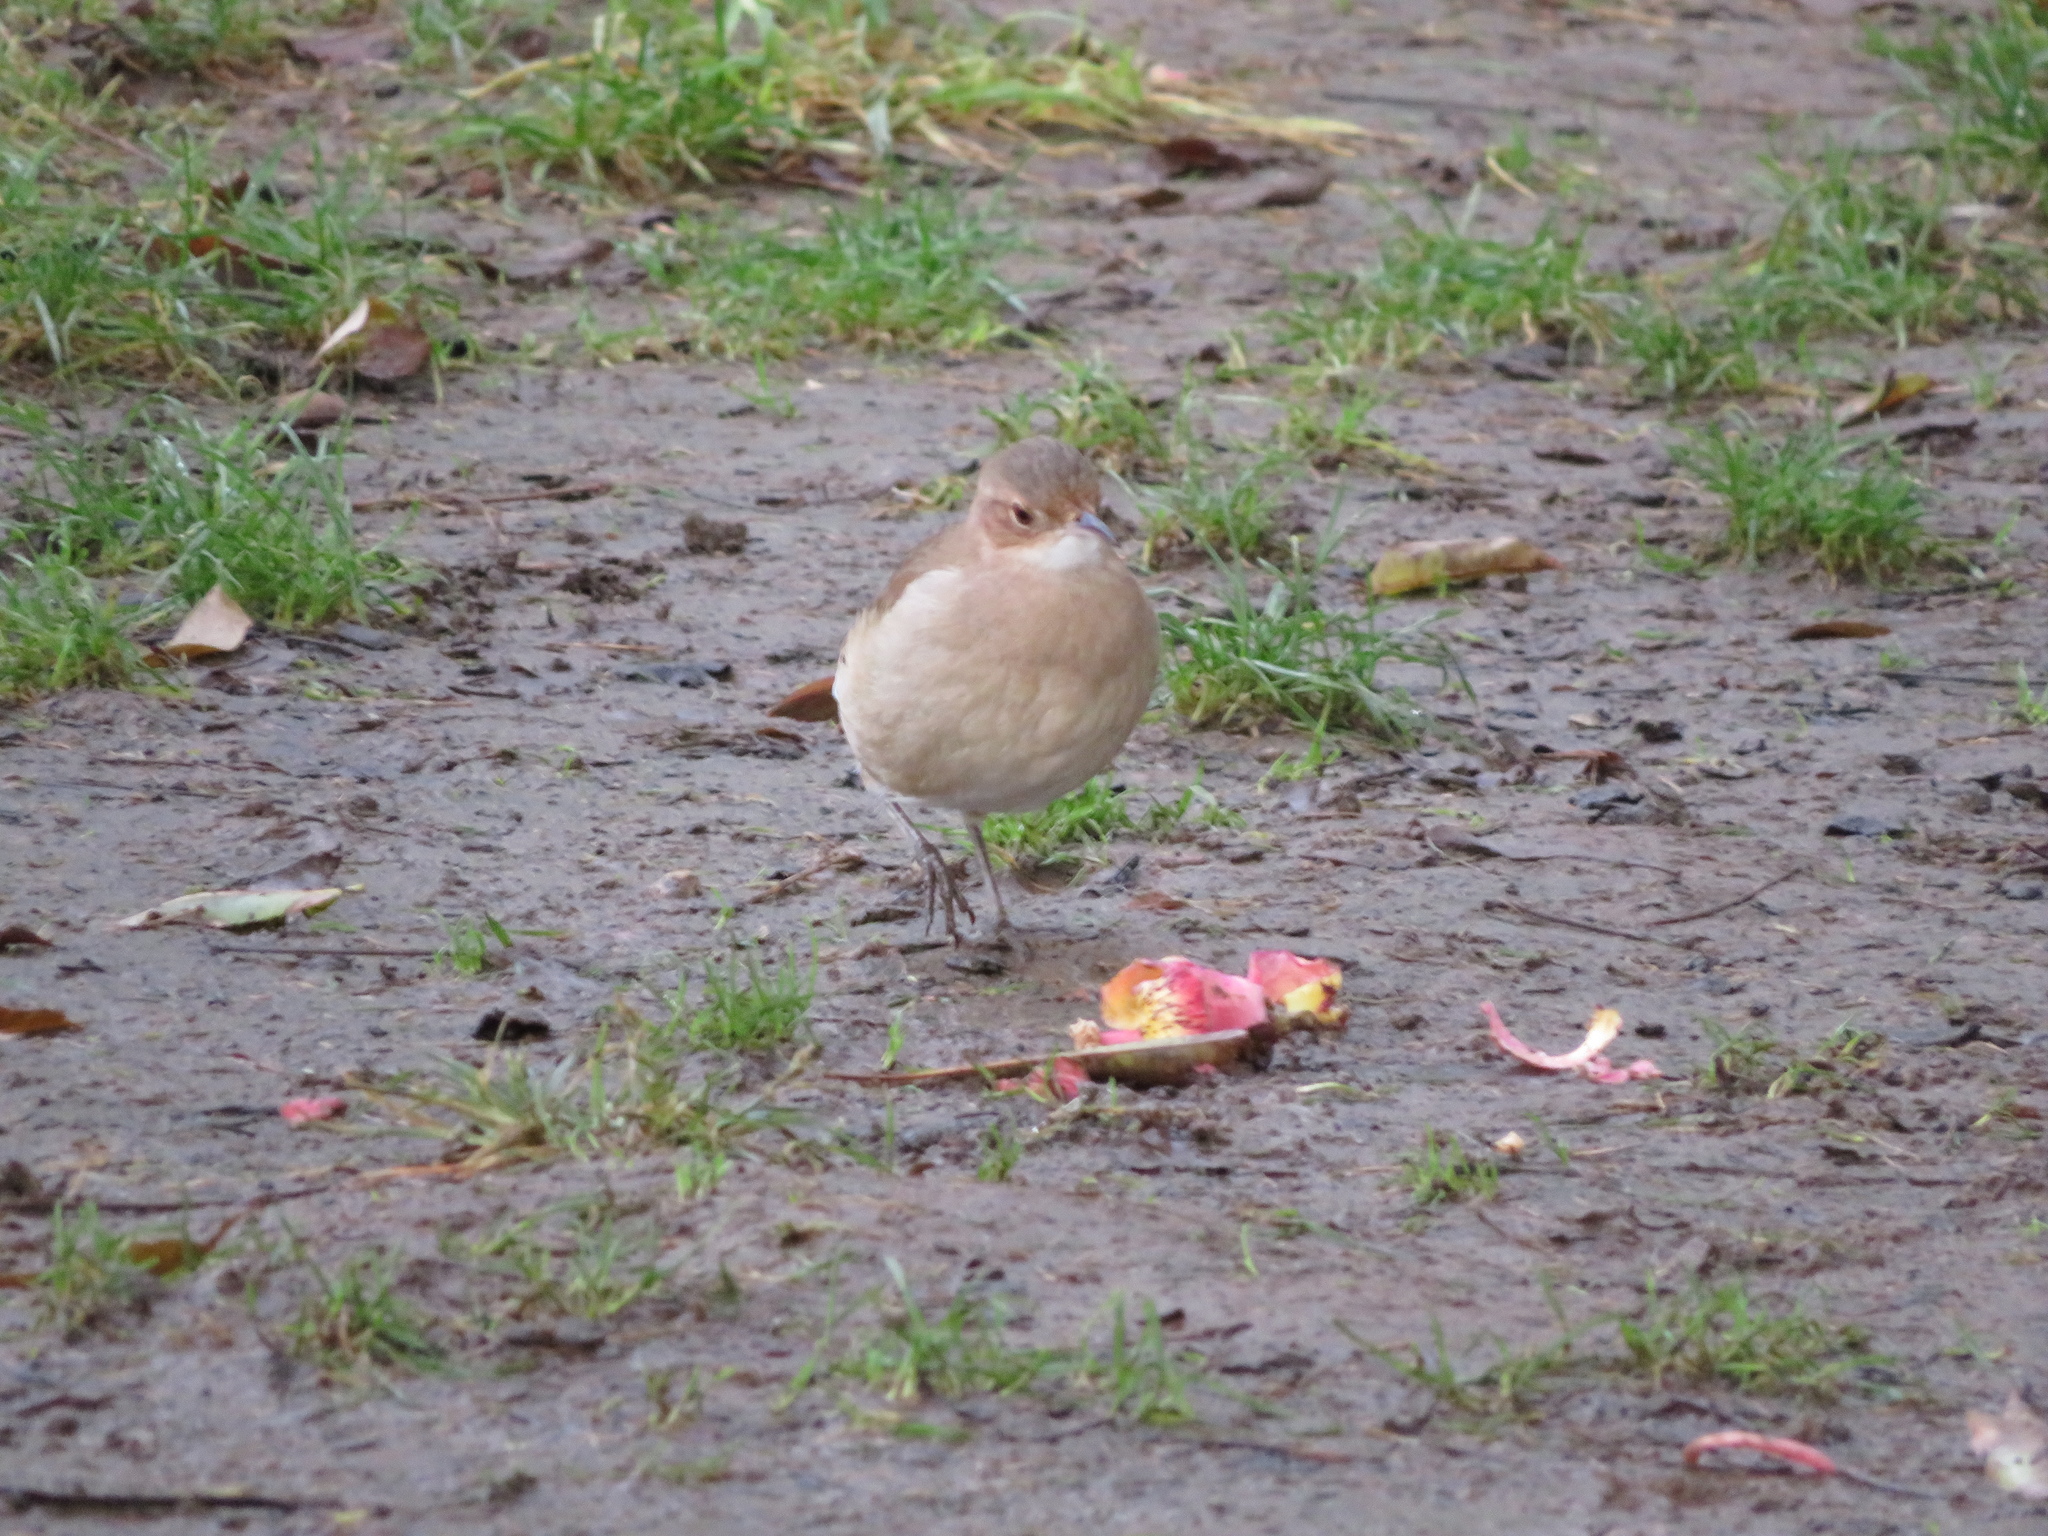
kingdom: Animalia
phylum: Chordata
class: Aves
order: Passeriformes
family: Furnariidae
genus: Furnarius
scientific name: Furnarius rufus
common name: Rufous hornero
